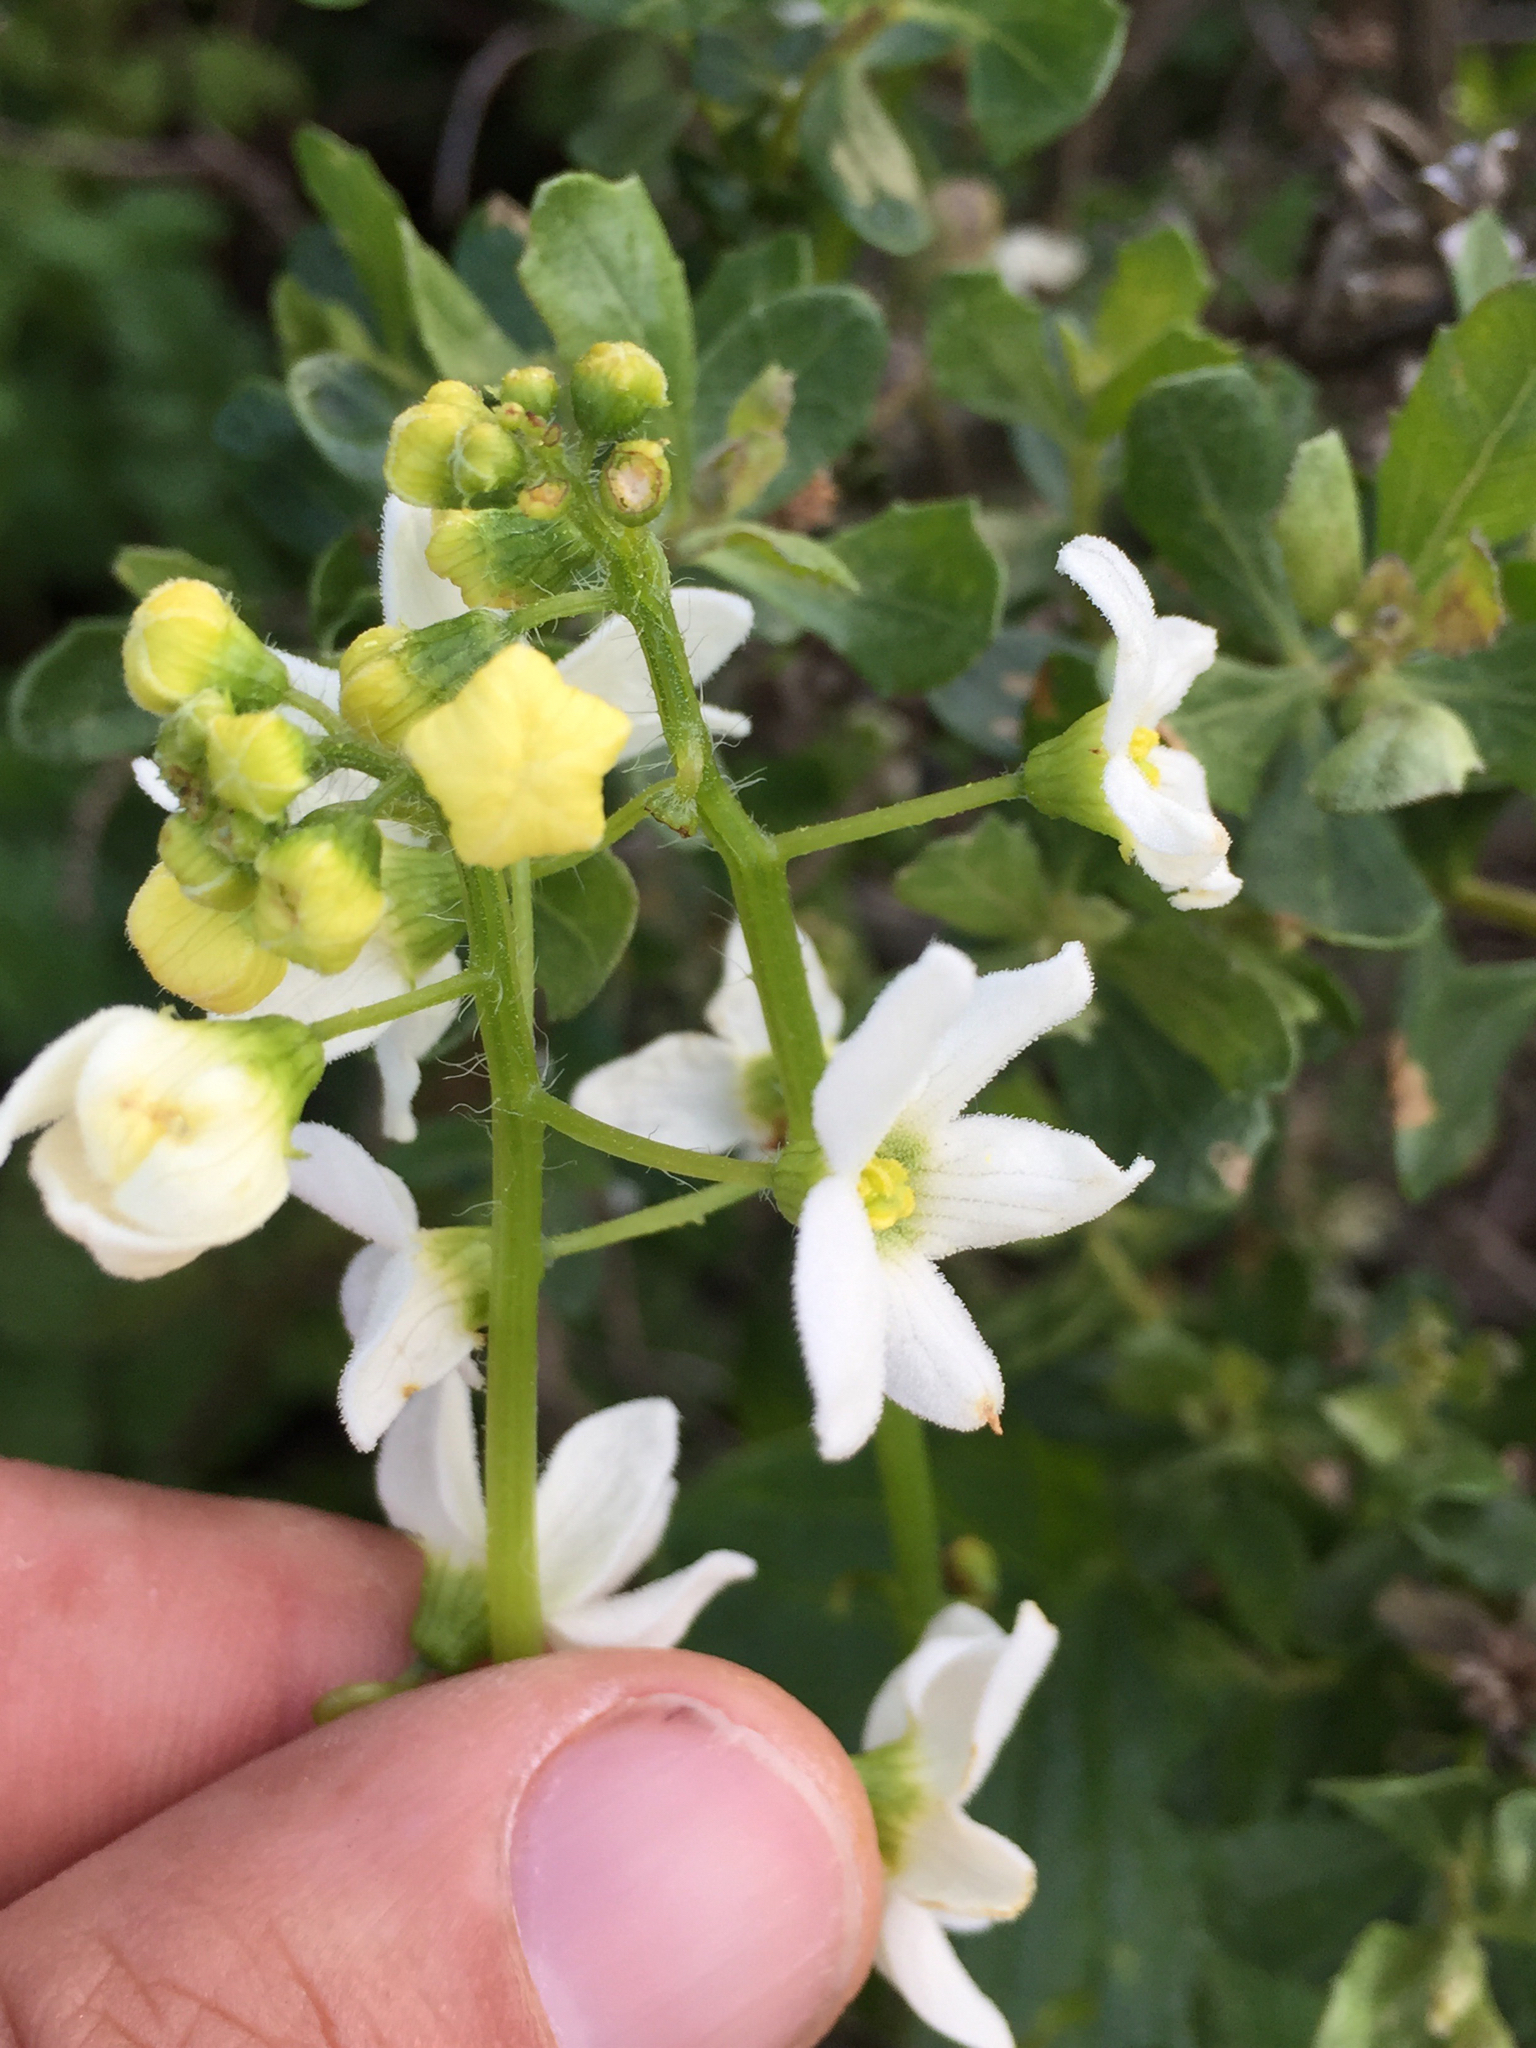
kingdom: Plantae
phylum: Tracheophyta
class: Magnoliopsida
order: Cucurbitales
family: Cucurbitaceae
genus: Marah
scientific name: Marah oregana
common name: Coastal manroot
